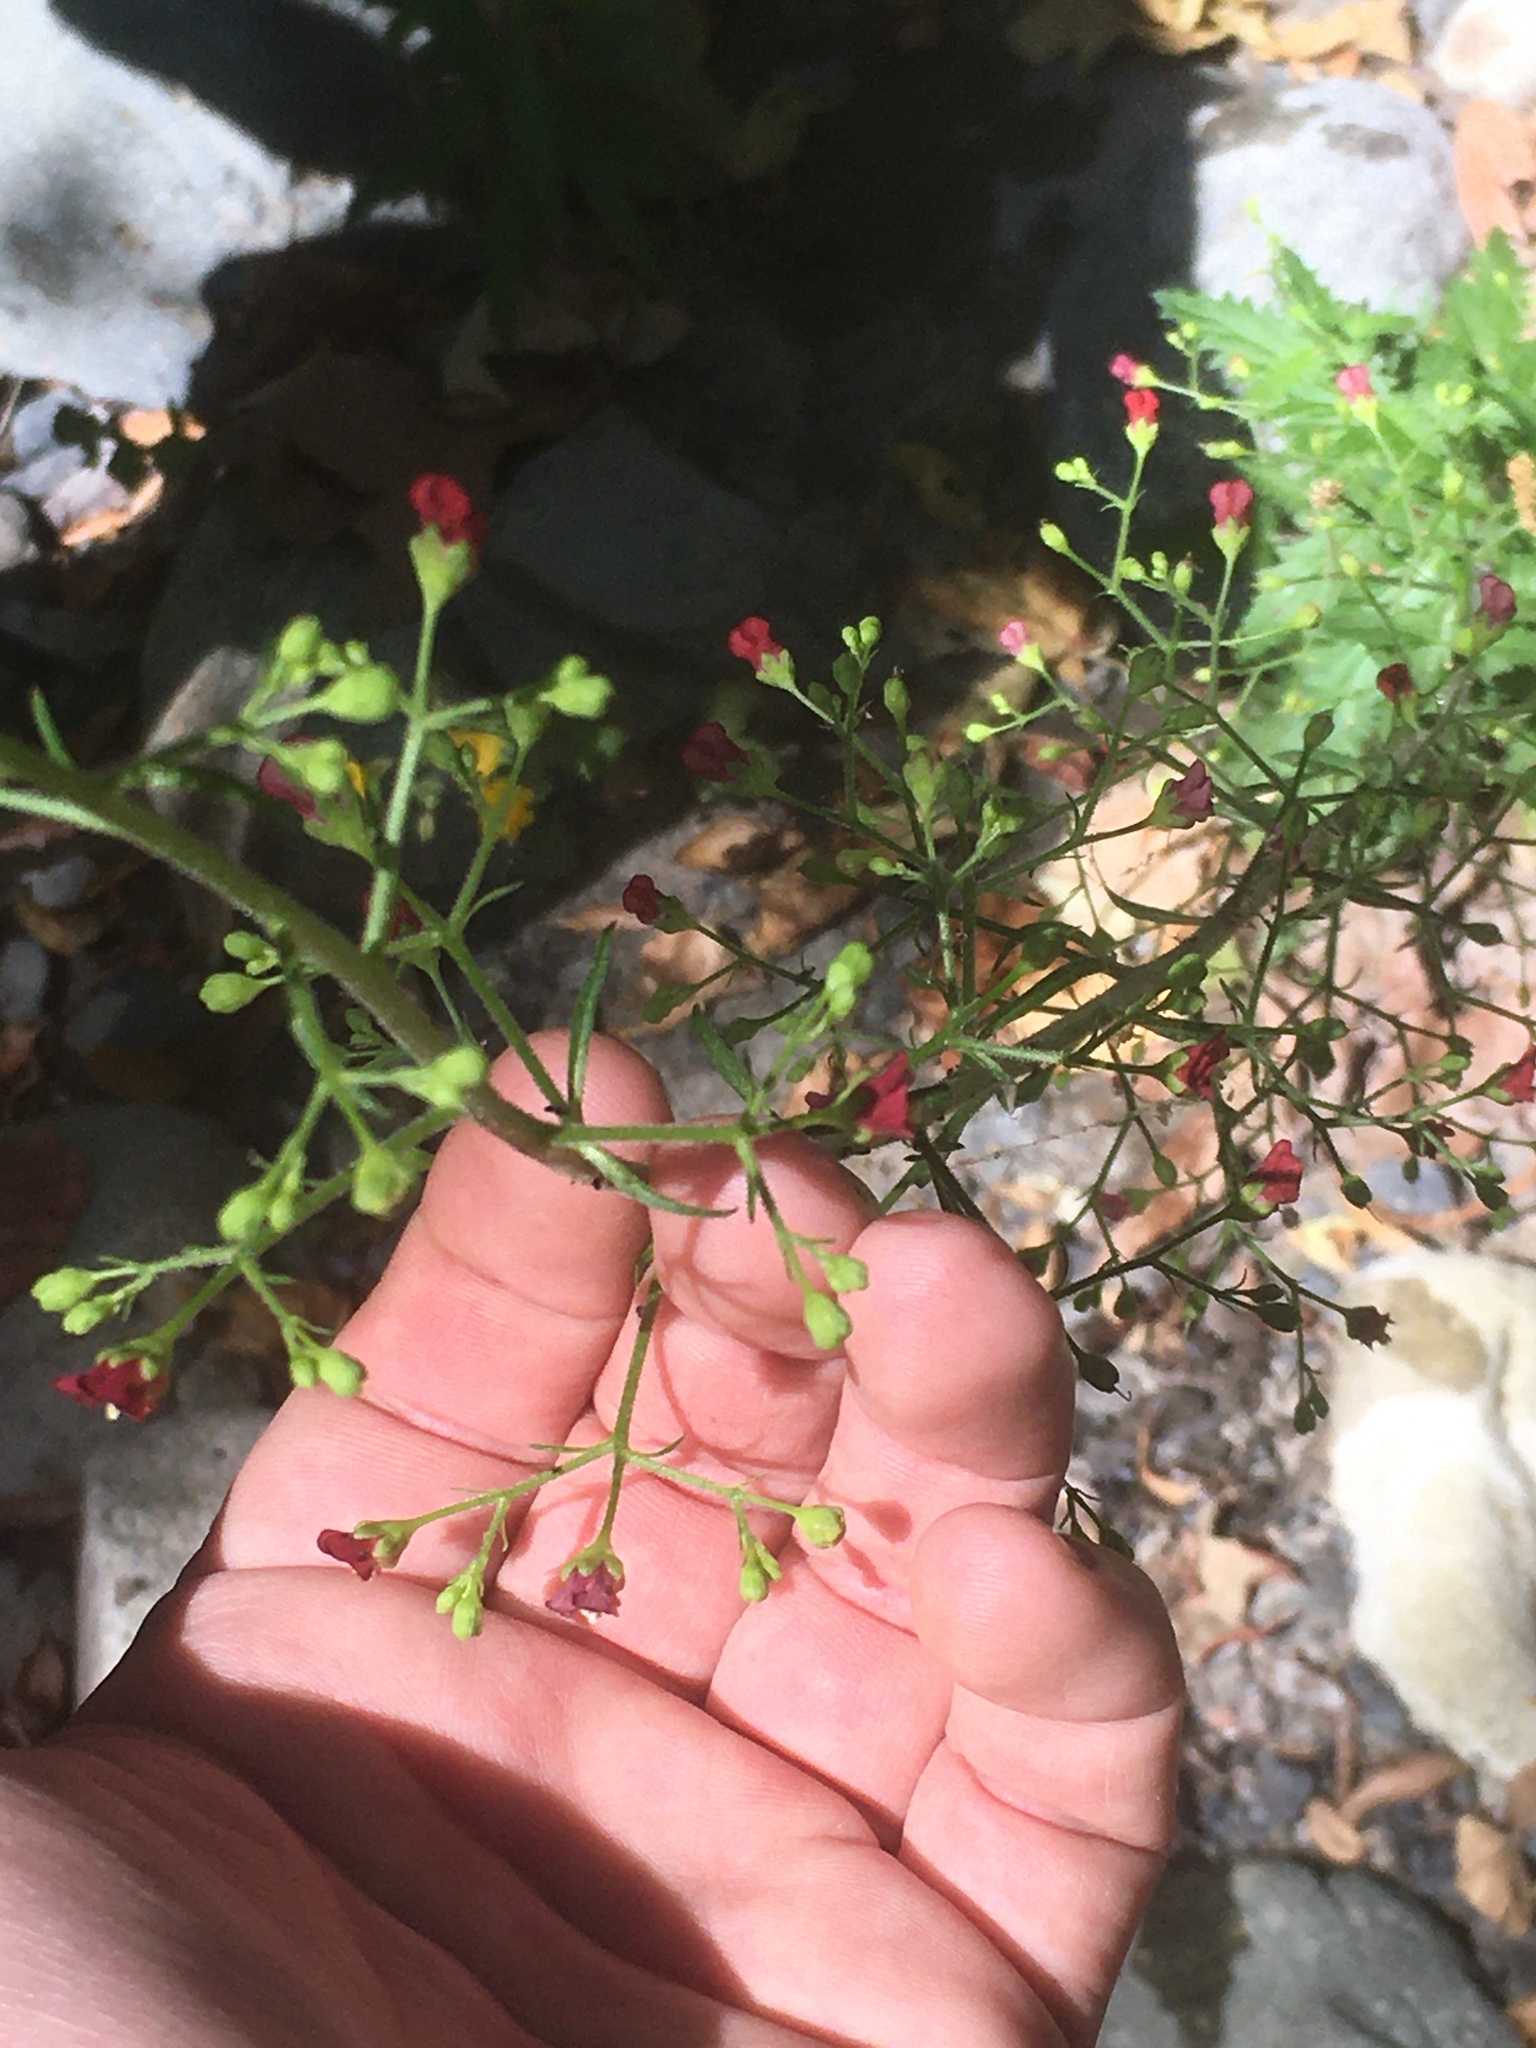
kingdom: Plantae
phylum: Tracheophyta
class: Magnoliopsida
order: Lamiales
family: Scrophulariaceae
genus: Scrophularia
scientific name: Scrophularia californica
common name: California figwort
